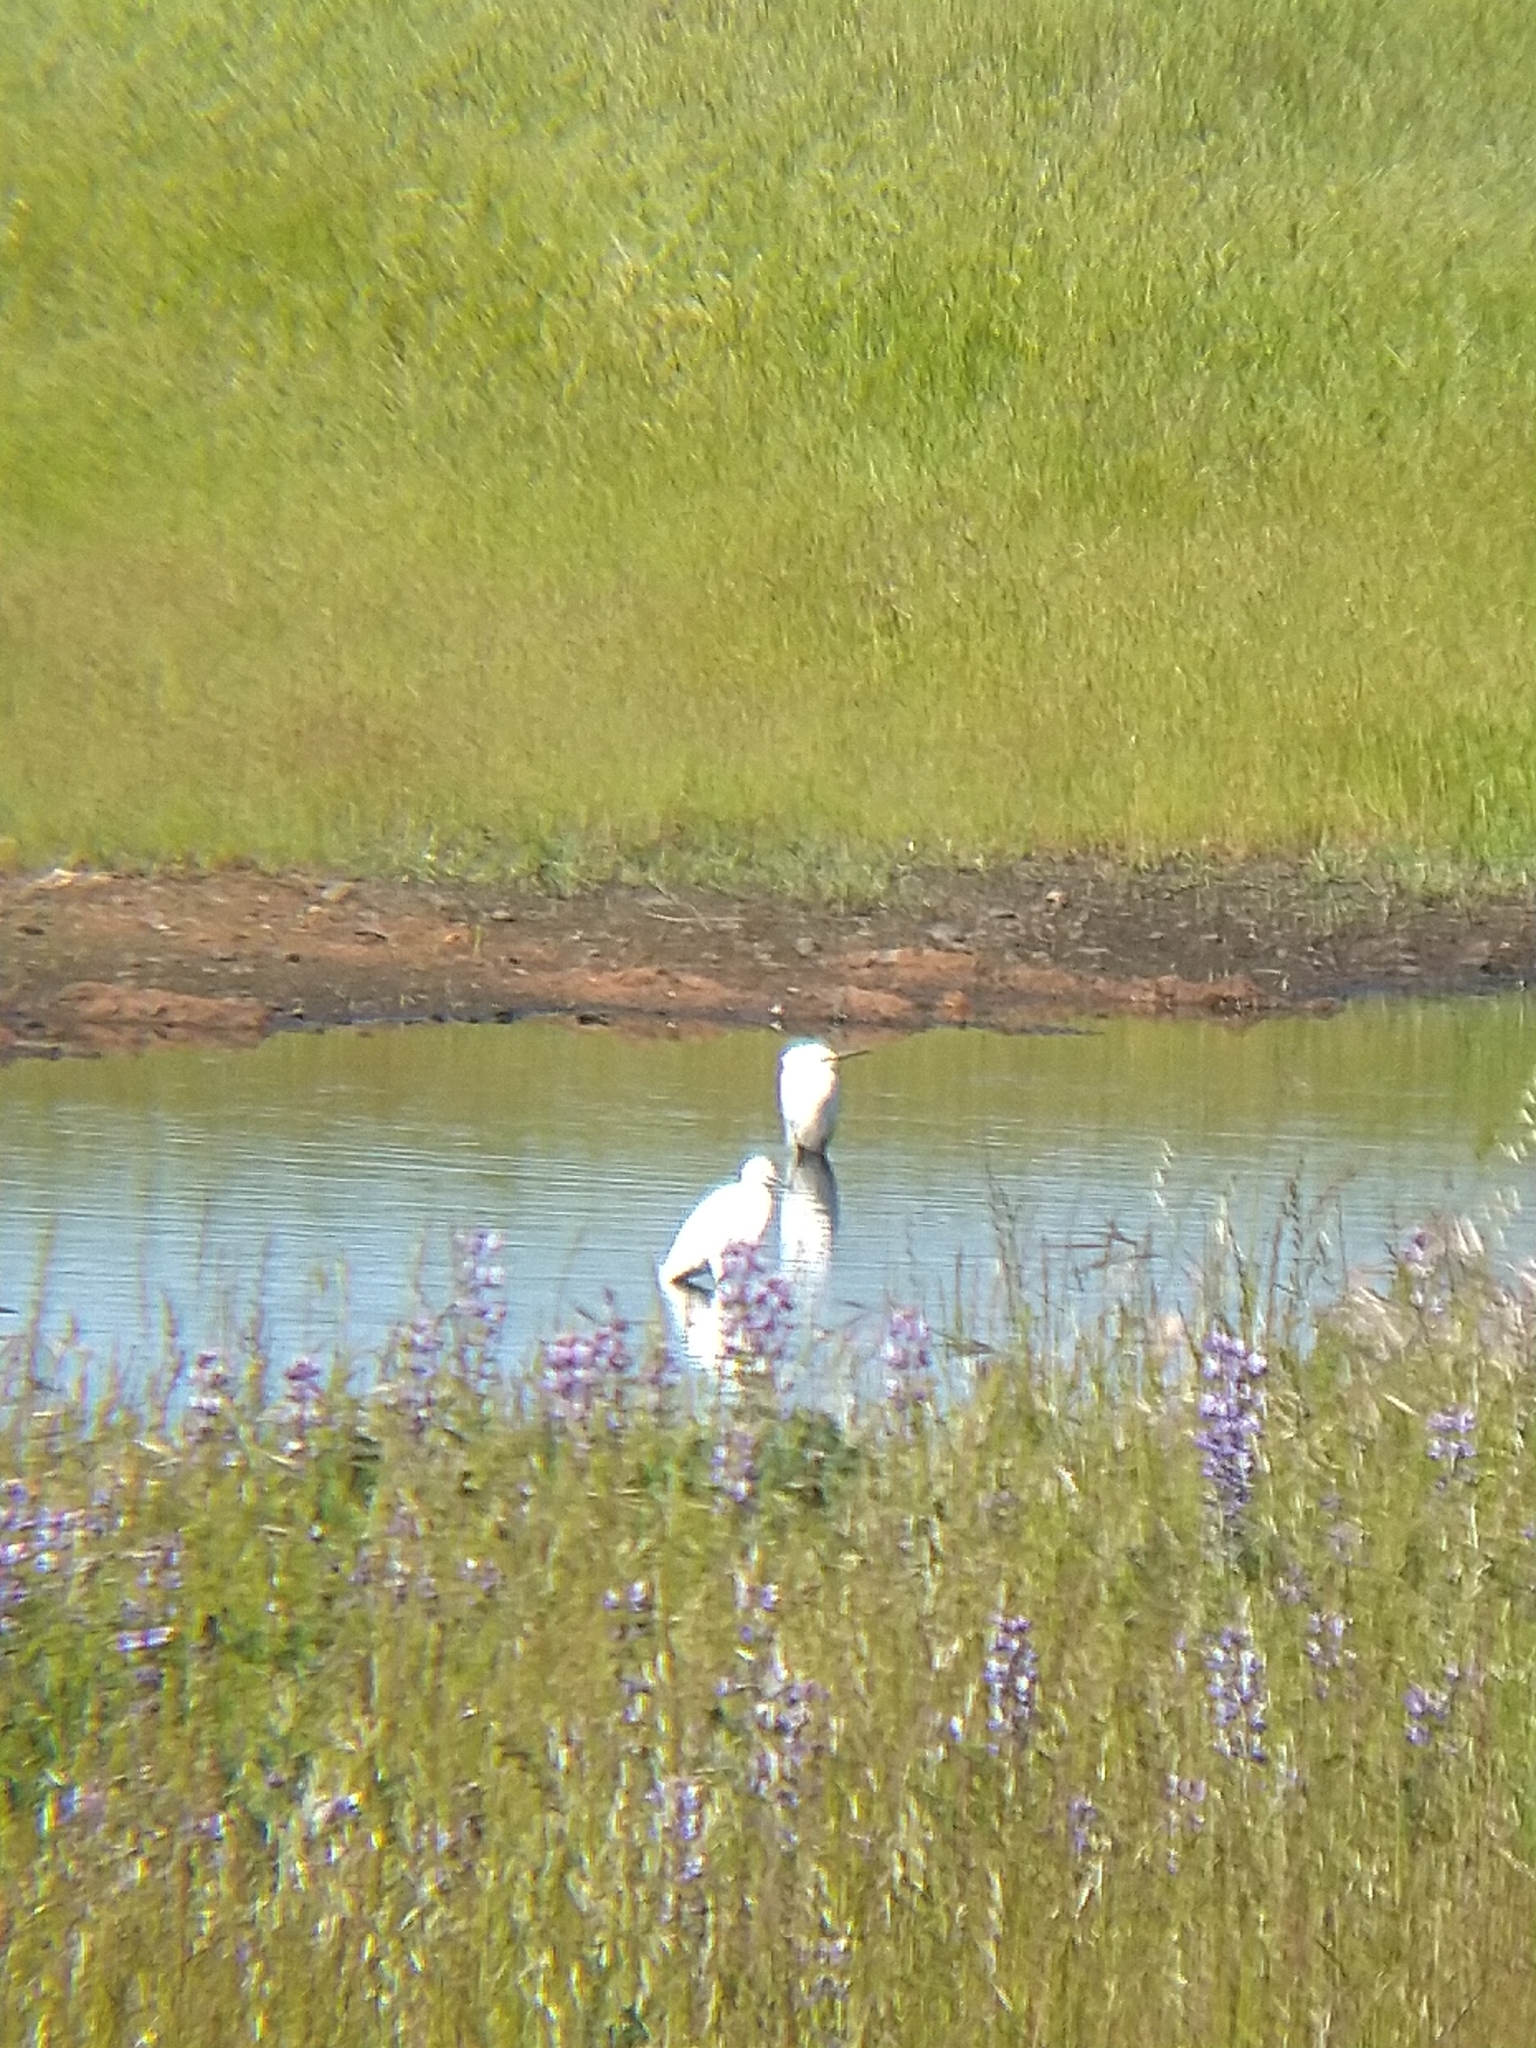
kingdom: Animalia
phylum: Chordata
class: Aves
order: Pelecaniformes
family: Ardeidae
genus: Egretta
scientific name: Egretta thula
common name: Snowy egret
